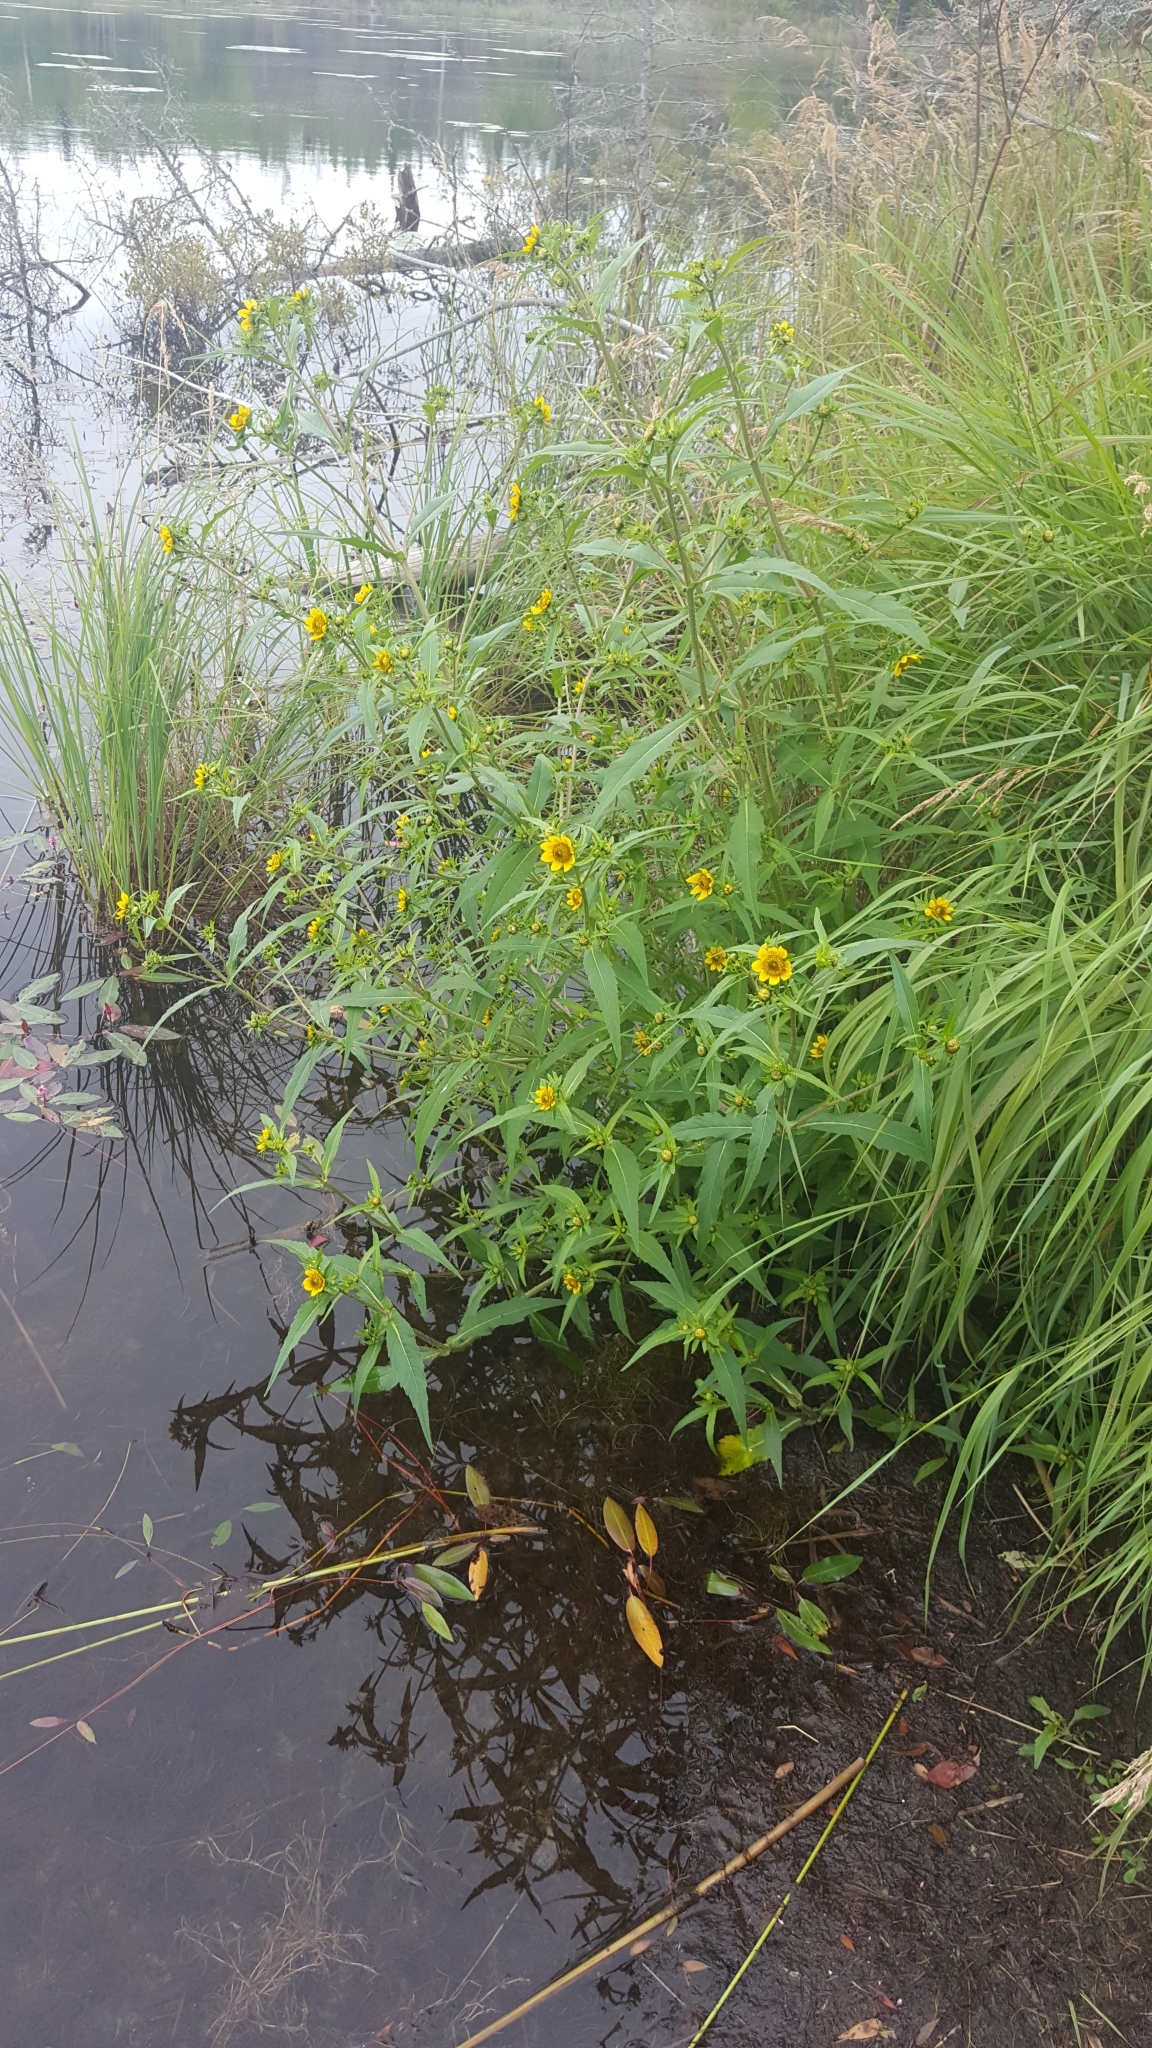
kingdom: Plantae
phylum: Tracheophyta
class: Magnoliopsida
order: Asterales
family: Asteraceae
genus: Bidens
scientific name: Bidens cernua
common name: Nodding bur-marigold
